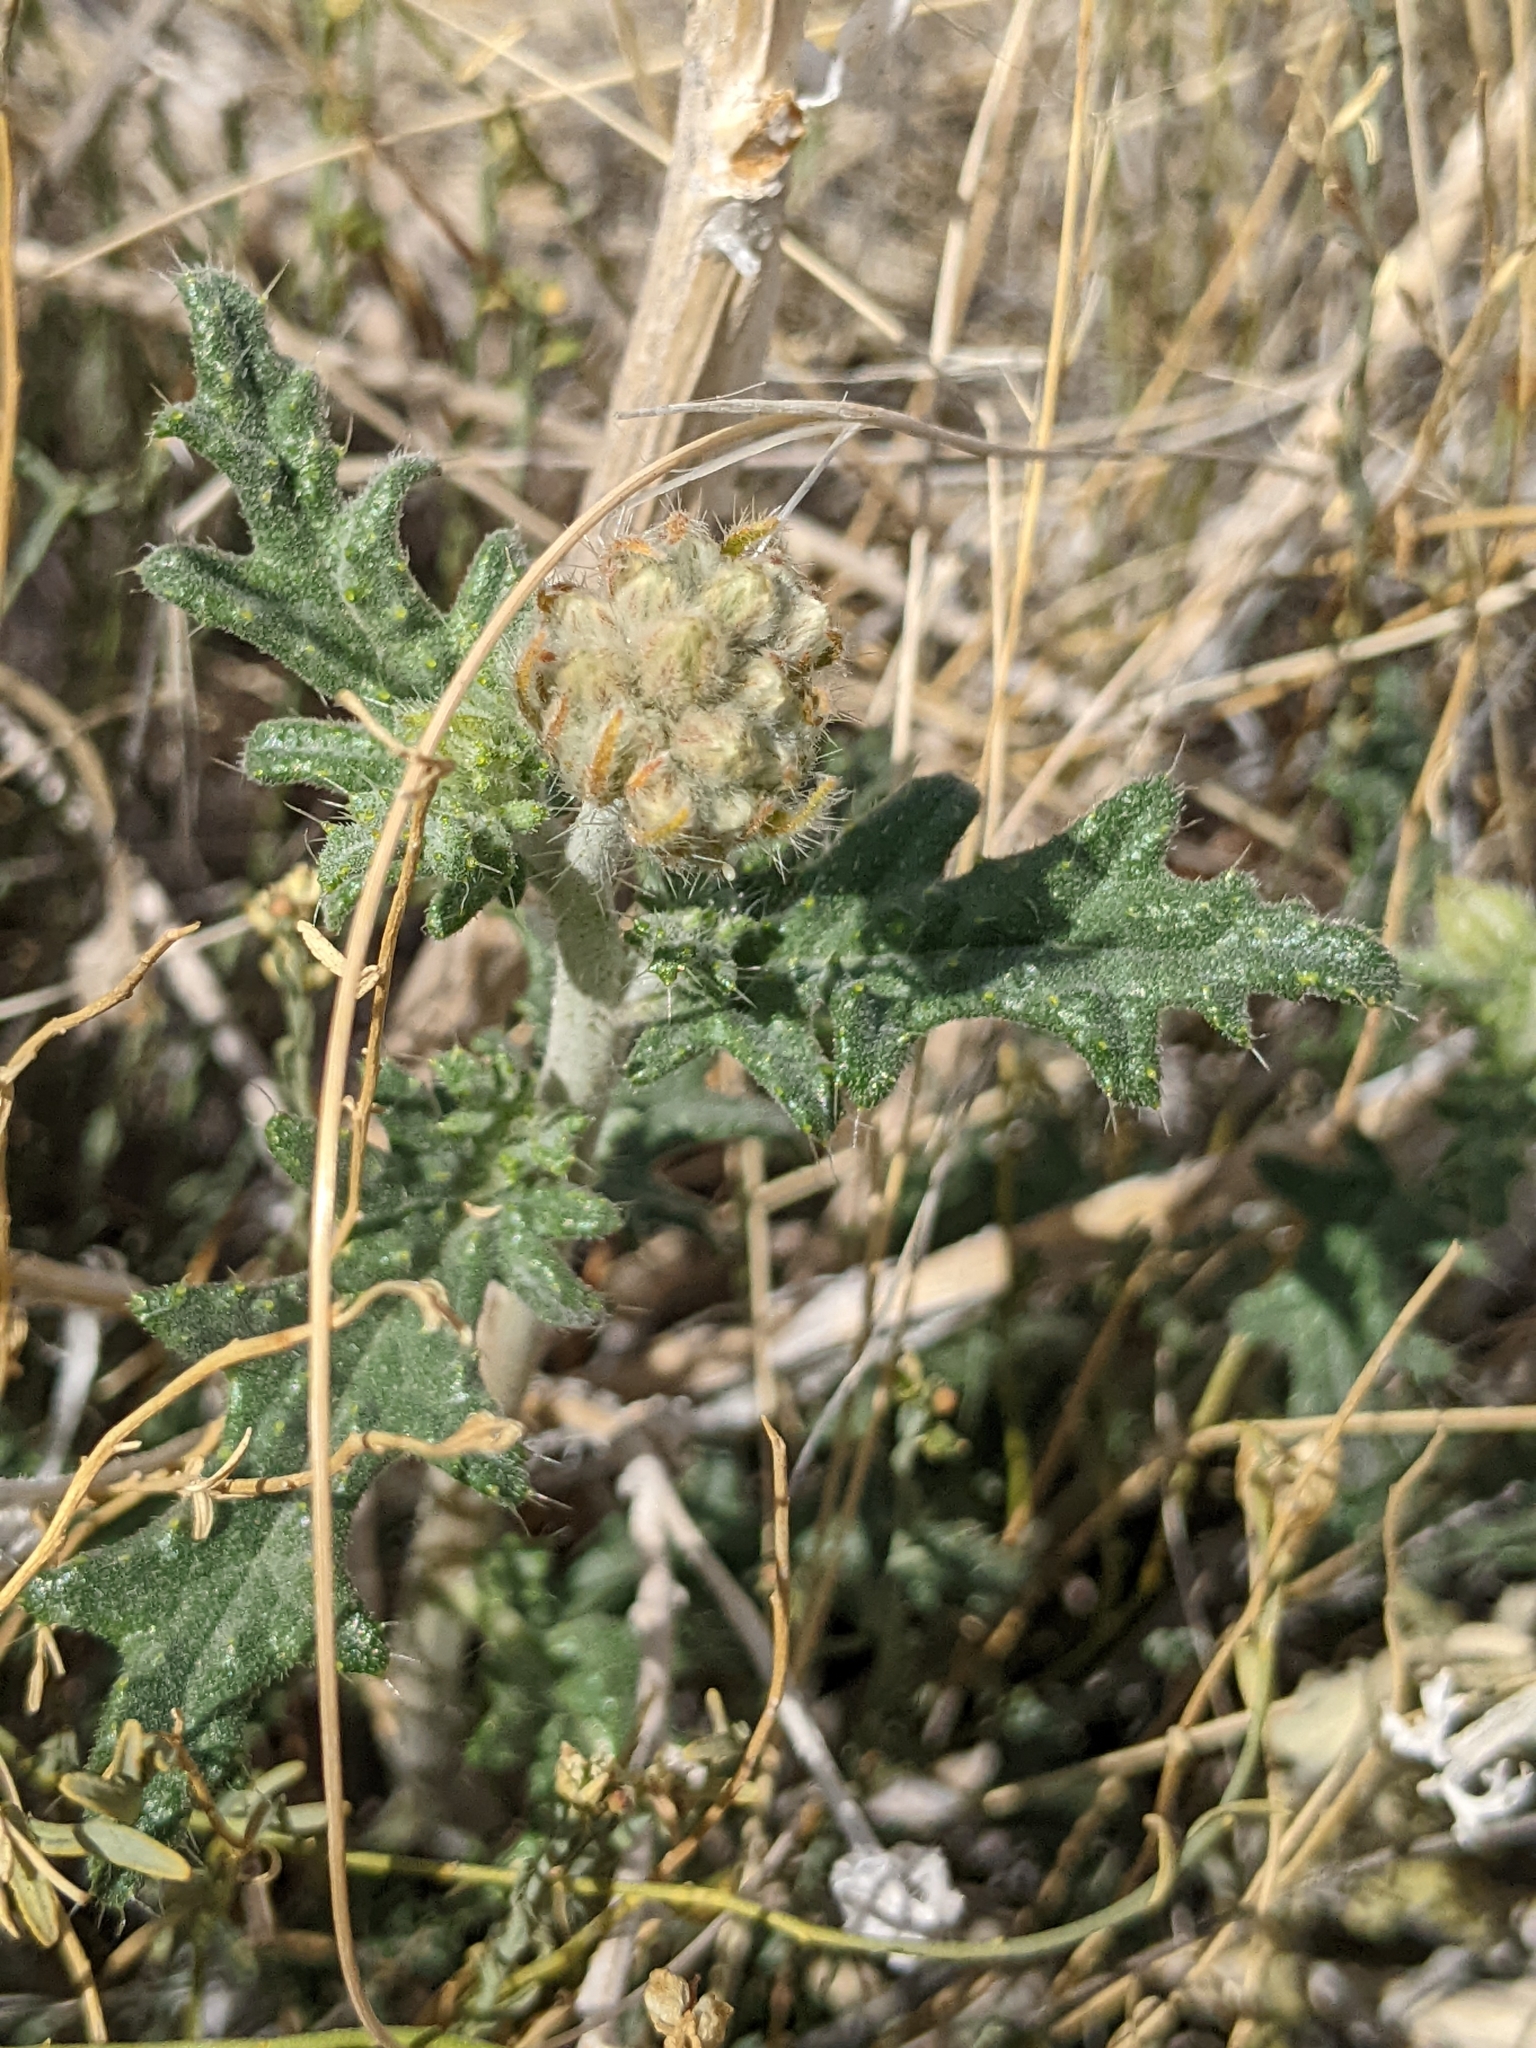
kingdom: Plantae
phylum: Tracheophyta
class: Magnoliopsida
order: Cornales
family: Loasaceae
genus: Cevallia
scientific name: Cevallia sinuata
